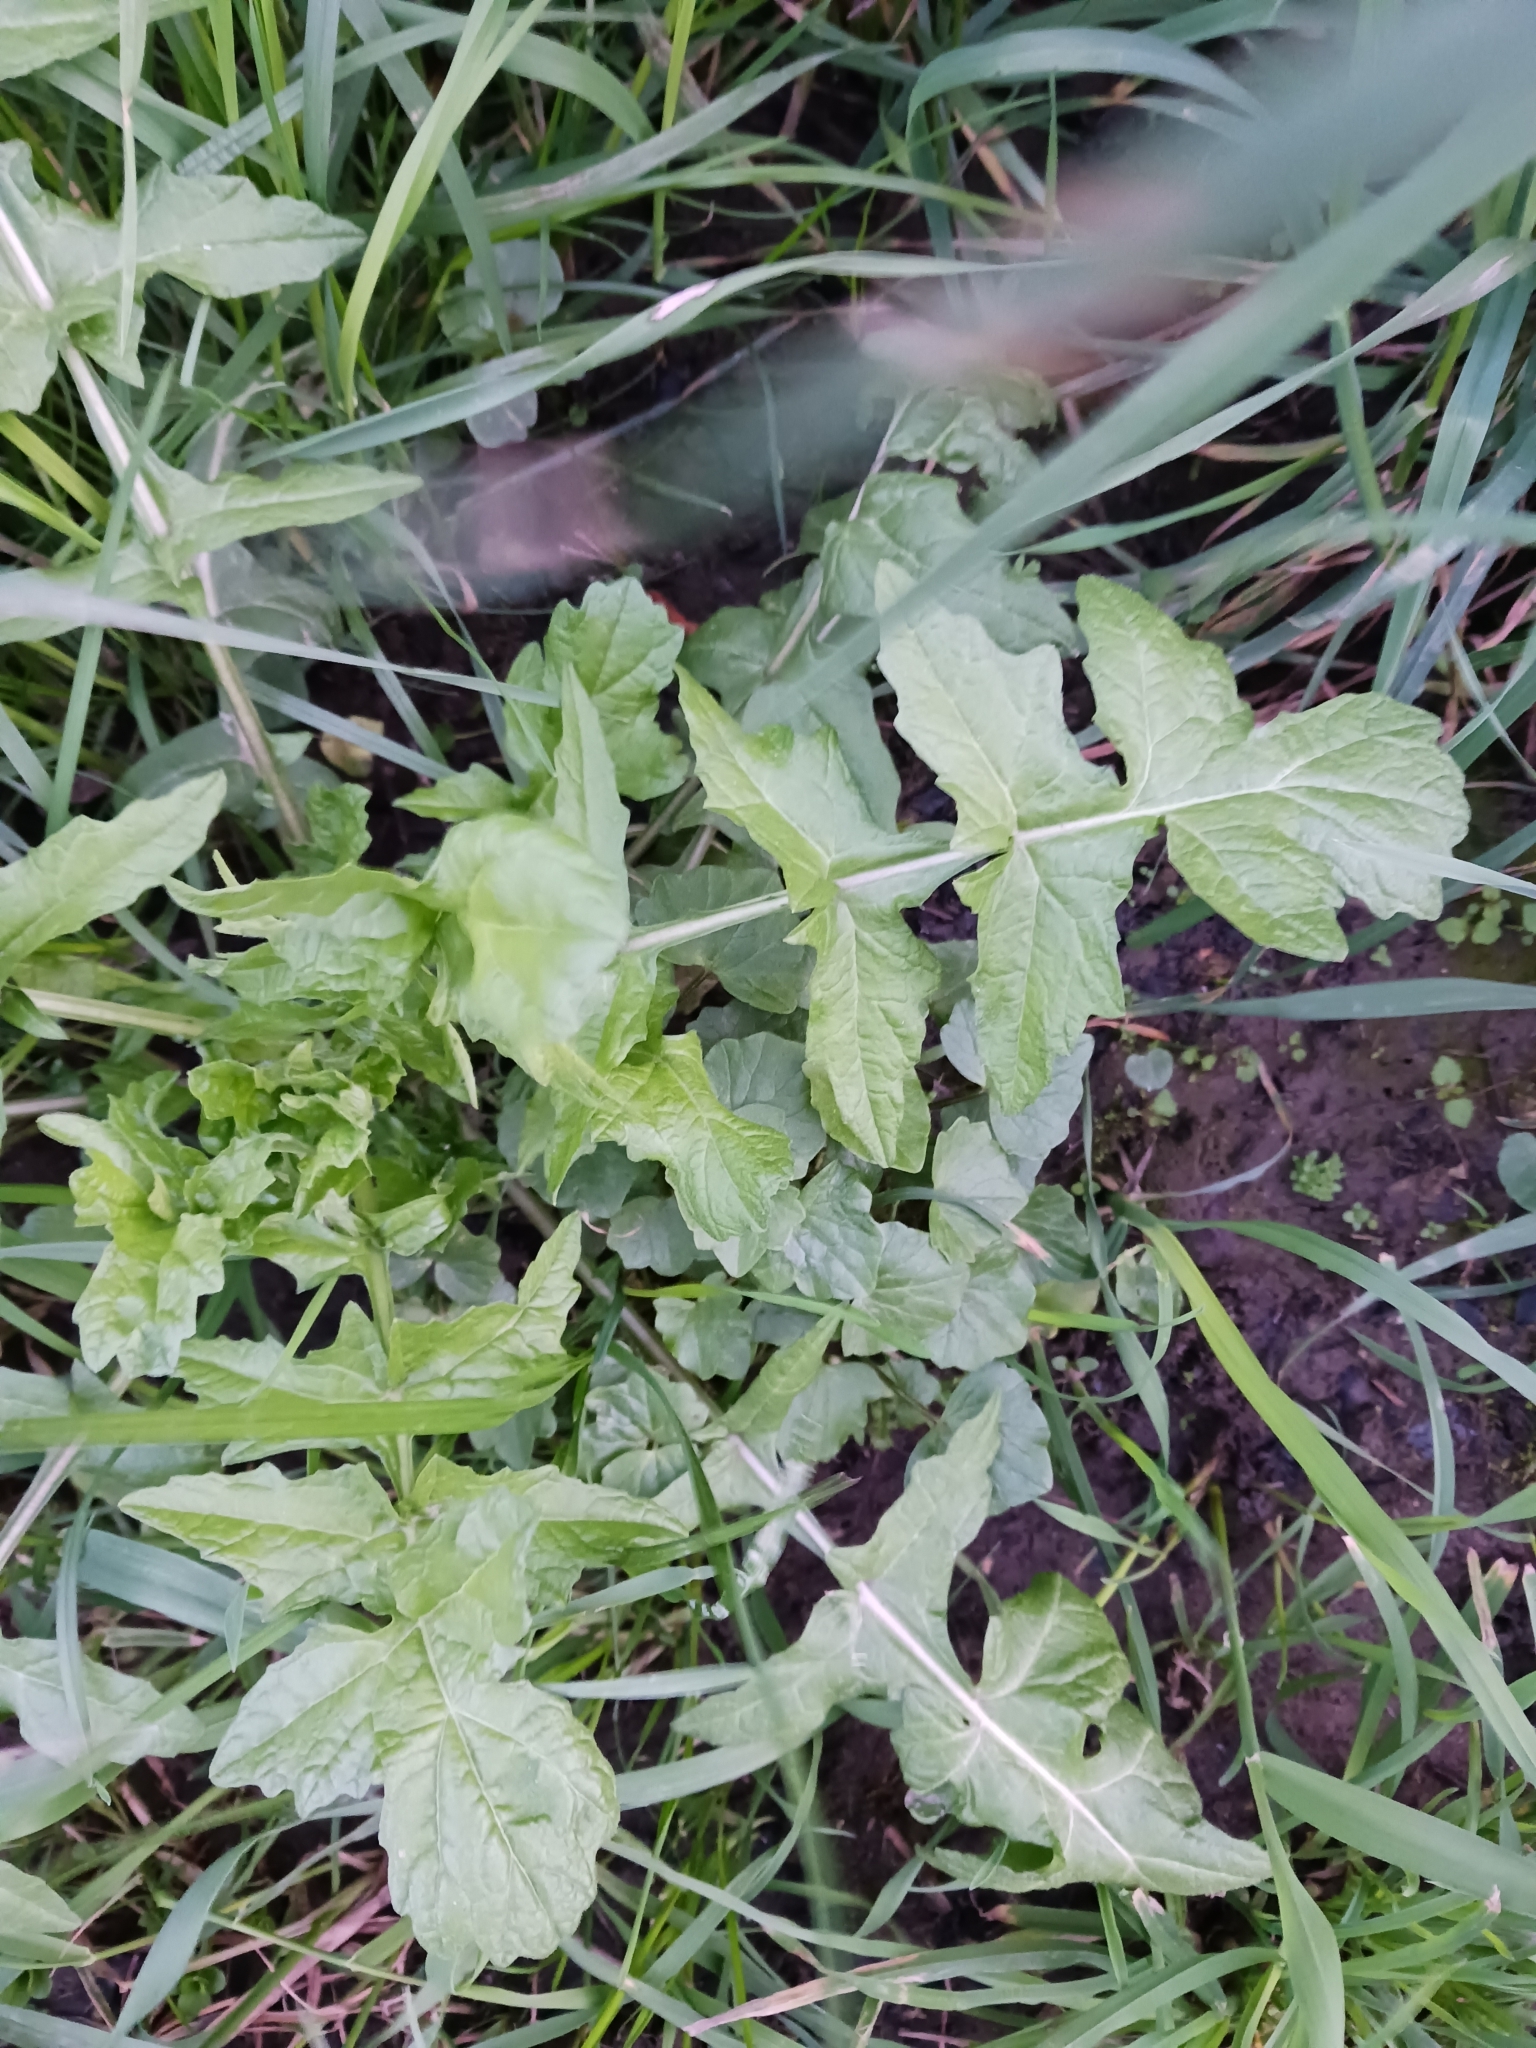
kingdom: Plantae
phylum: Tracheophyta
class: Magnoliopsida
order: Brassicales
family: Brassicaceae
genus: Sisymbrium
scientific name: Sisymbrium officinale
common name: Hedge mustard
